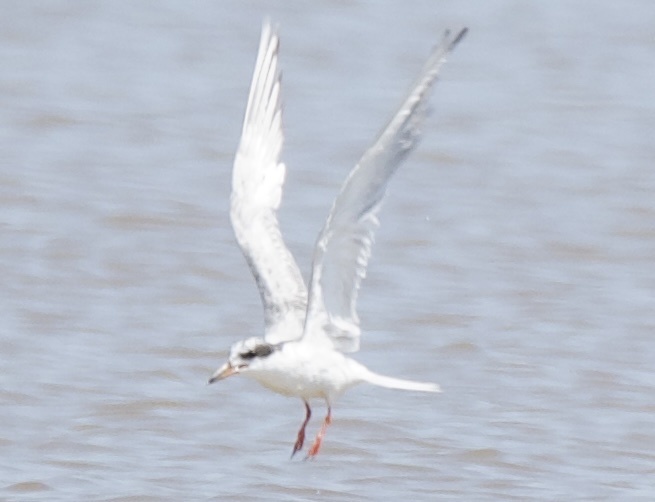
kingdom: Animalia
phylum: Chordata
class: Aves
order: Charadriiformes
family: Laridae
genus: Sterna
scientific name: Sterna forsteri
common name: Forster's tern
